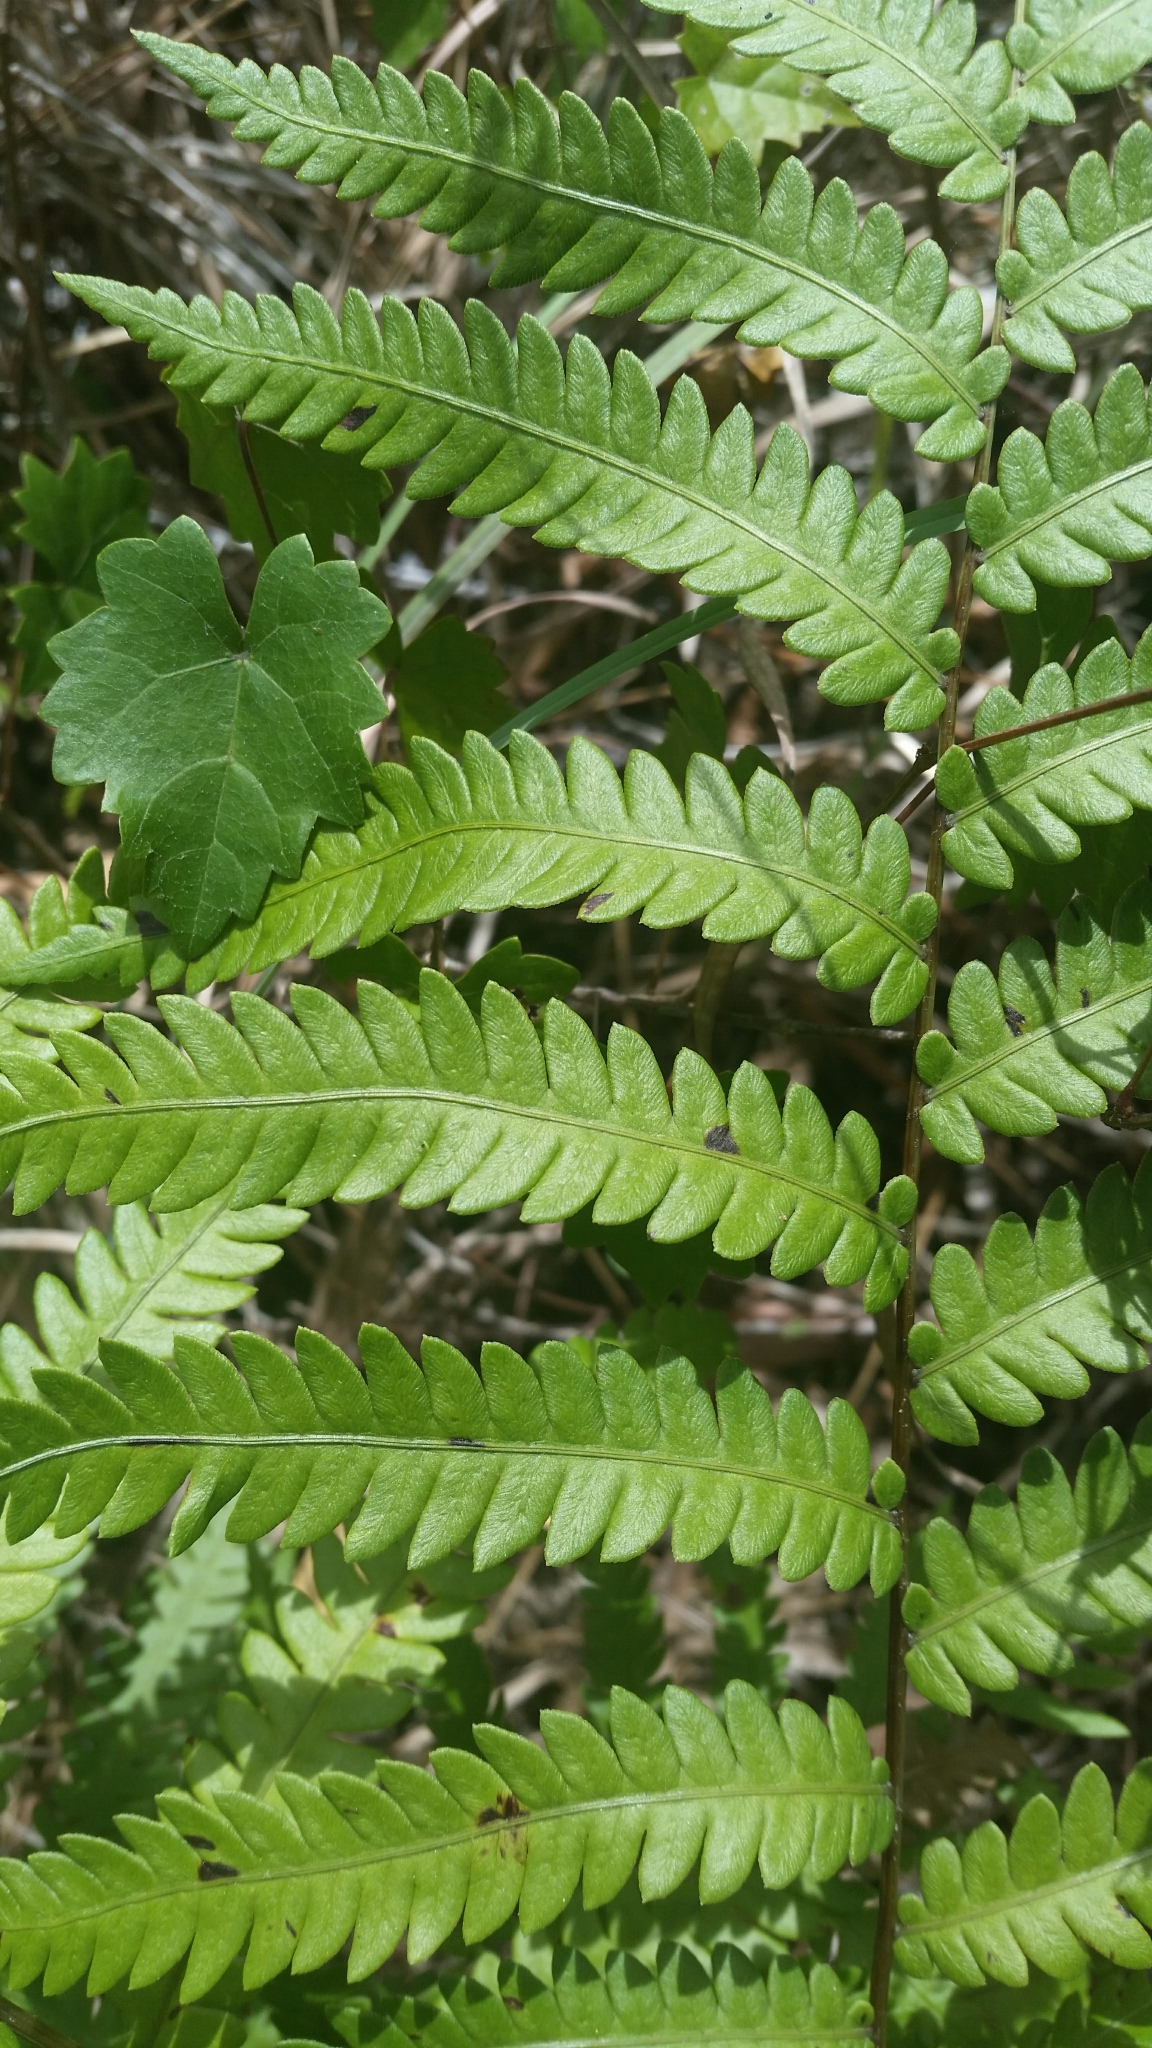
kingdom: Plantae
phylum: Tracheophyta
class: Polypodiopsida
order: Polypodiales
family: Blechnaceae
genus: Anchistea
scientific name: Anchistea virginica
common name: Virginia chain fern
